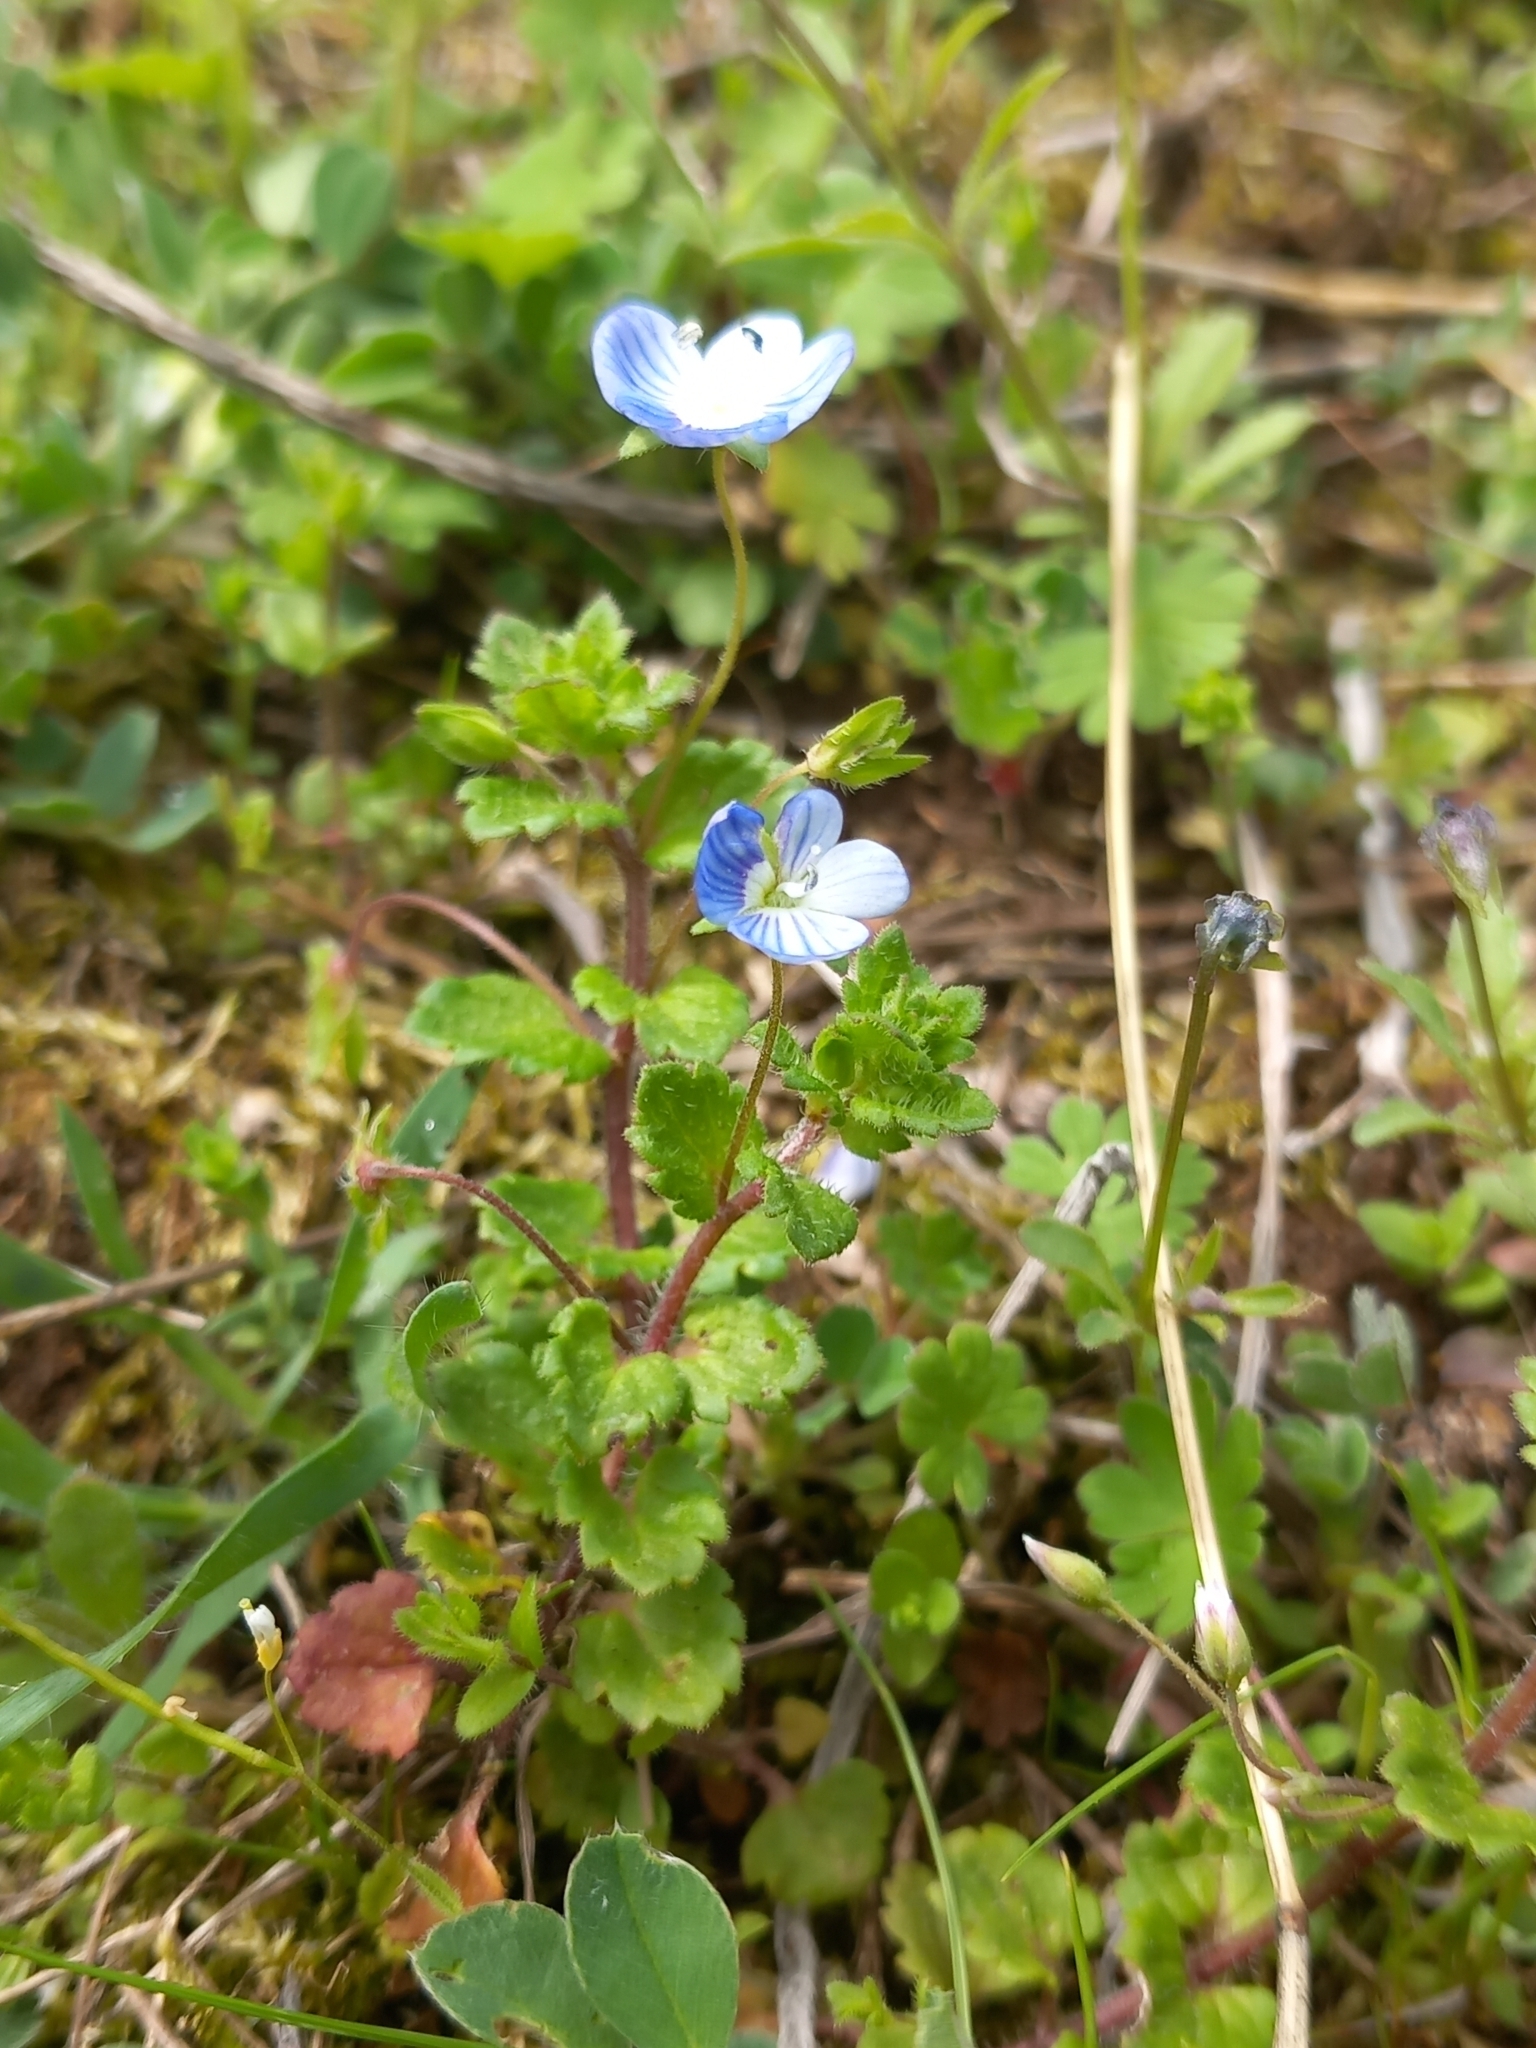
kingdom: Plantae
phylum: Tracheophyta
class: Magnoliopsida
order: Lamiales
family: Plantaginaceae
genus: Veronica
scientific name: Veronica persica
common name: Common field-speedwell
